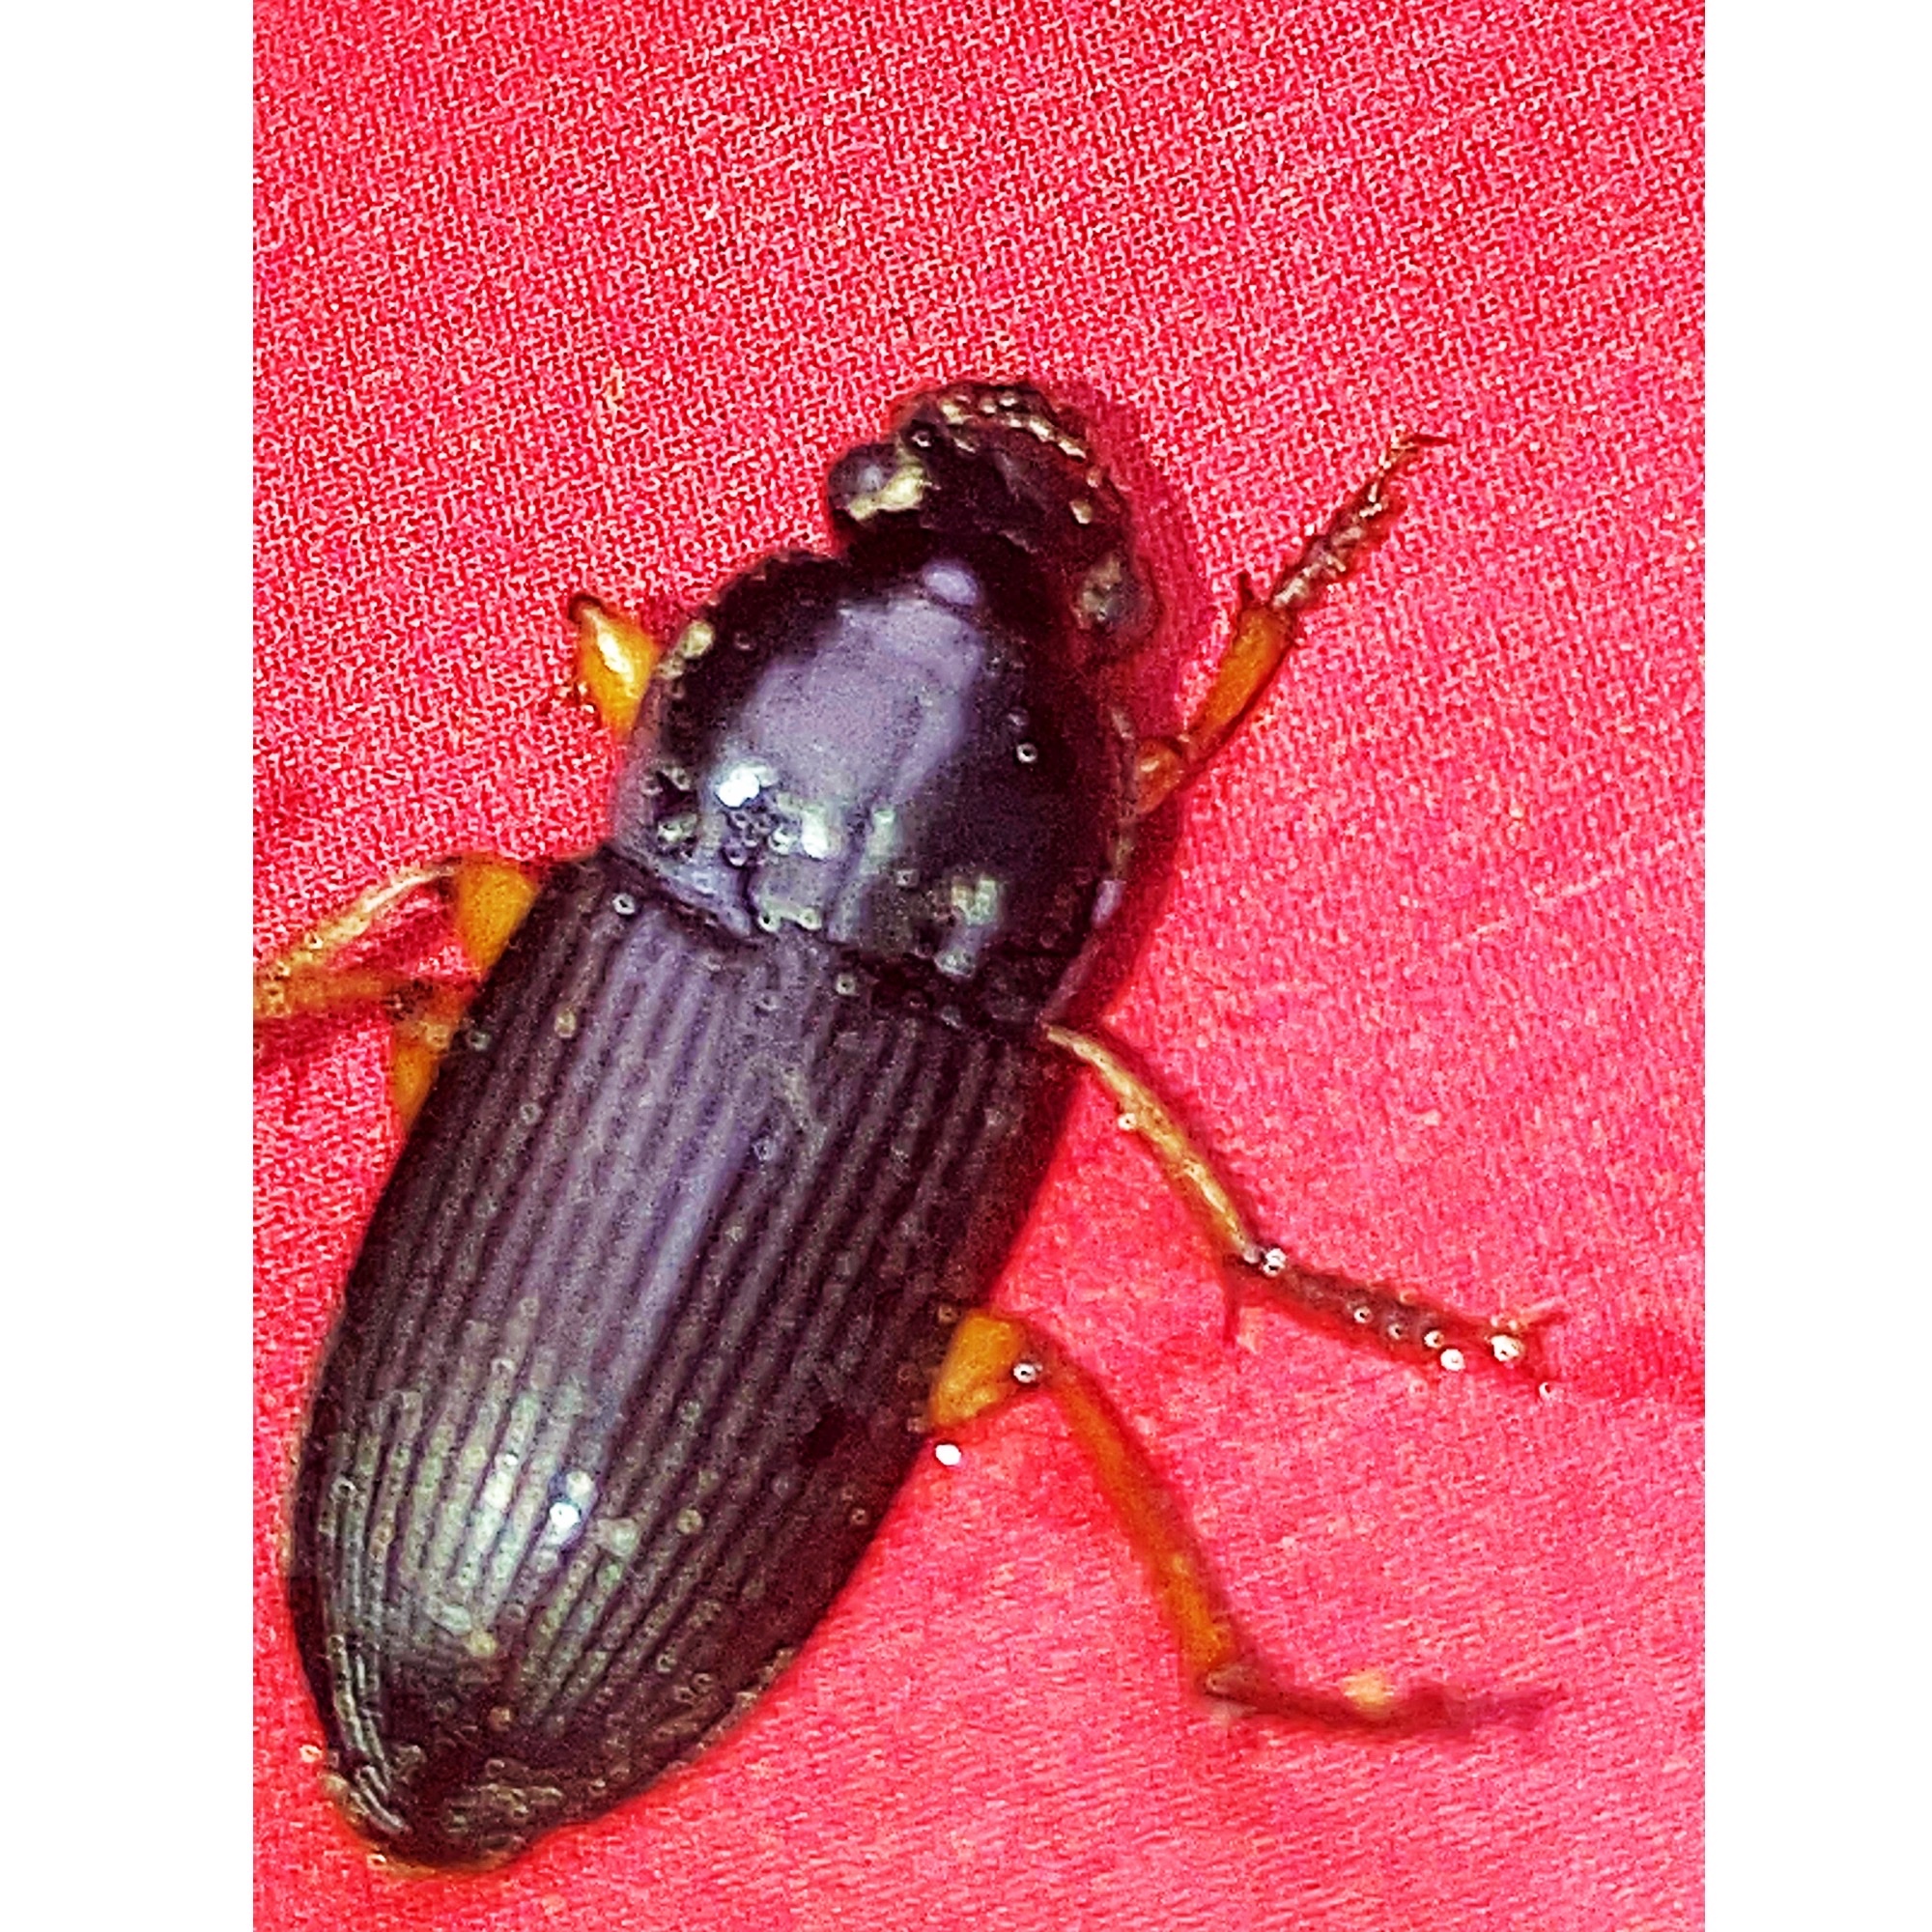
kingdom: Animalia
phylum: Arthropoda
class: Insecta
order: Coleoptera
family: Carabidae
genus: Harpalus
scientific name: Harpalus pensylvanicus
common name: Pennsylvania dingy ground beetle
